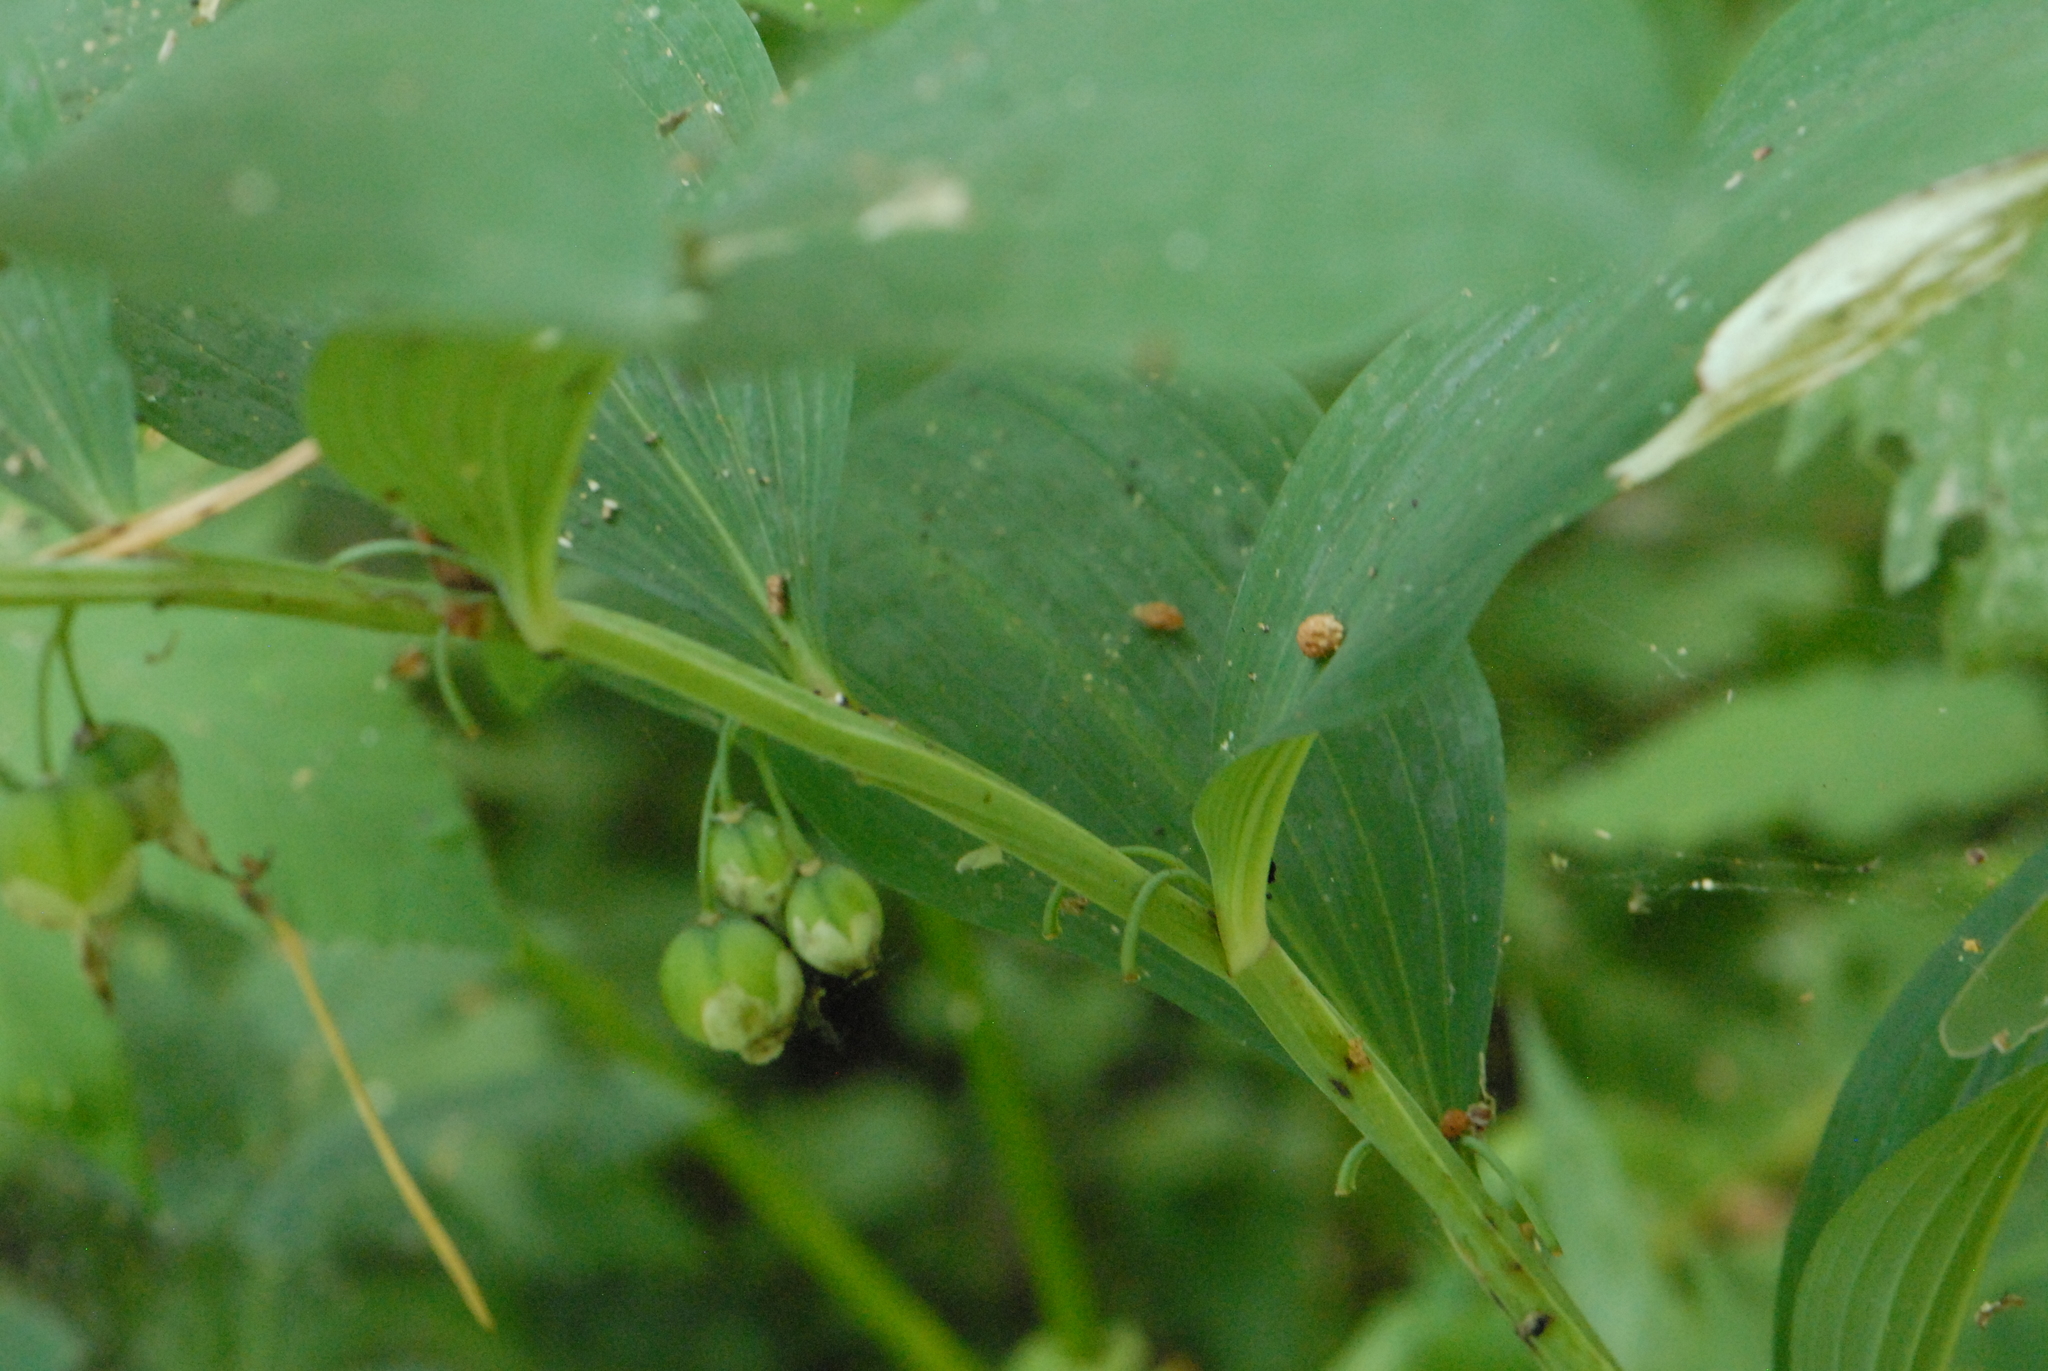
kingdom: Plantae
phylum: Tracheophyta
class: Liliopsida
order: Asparagales
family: Asparagaceae
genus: Polygonatum
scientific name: Polygonatum multiflorum
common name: Solomon's-seal
